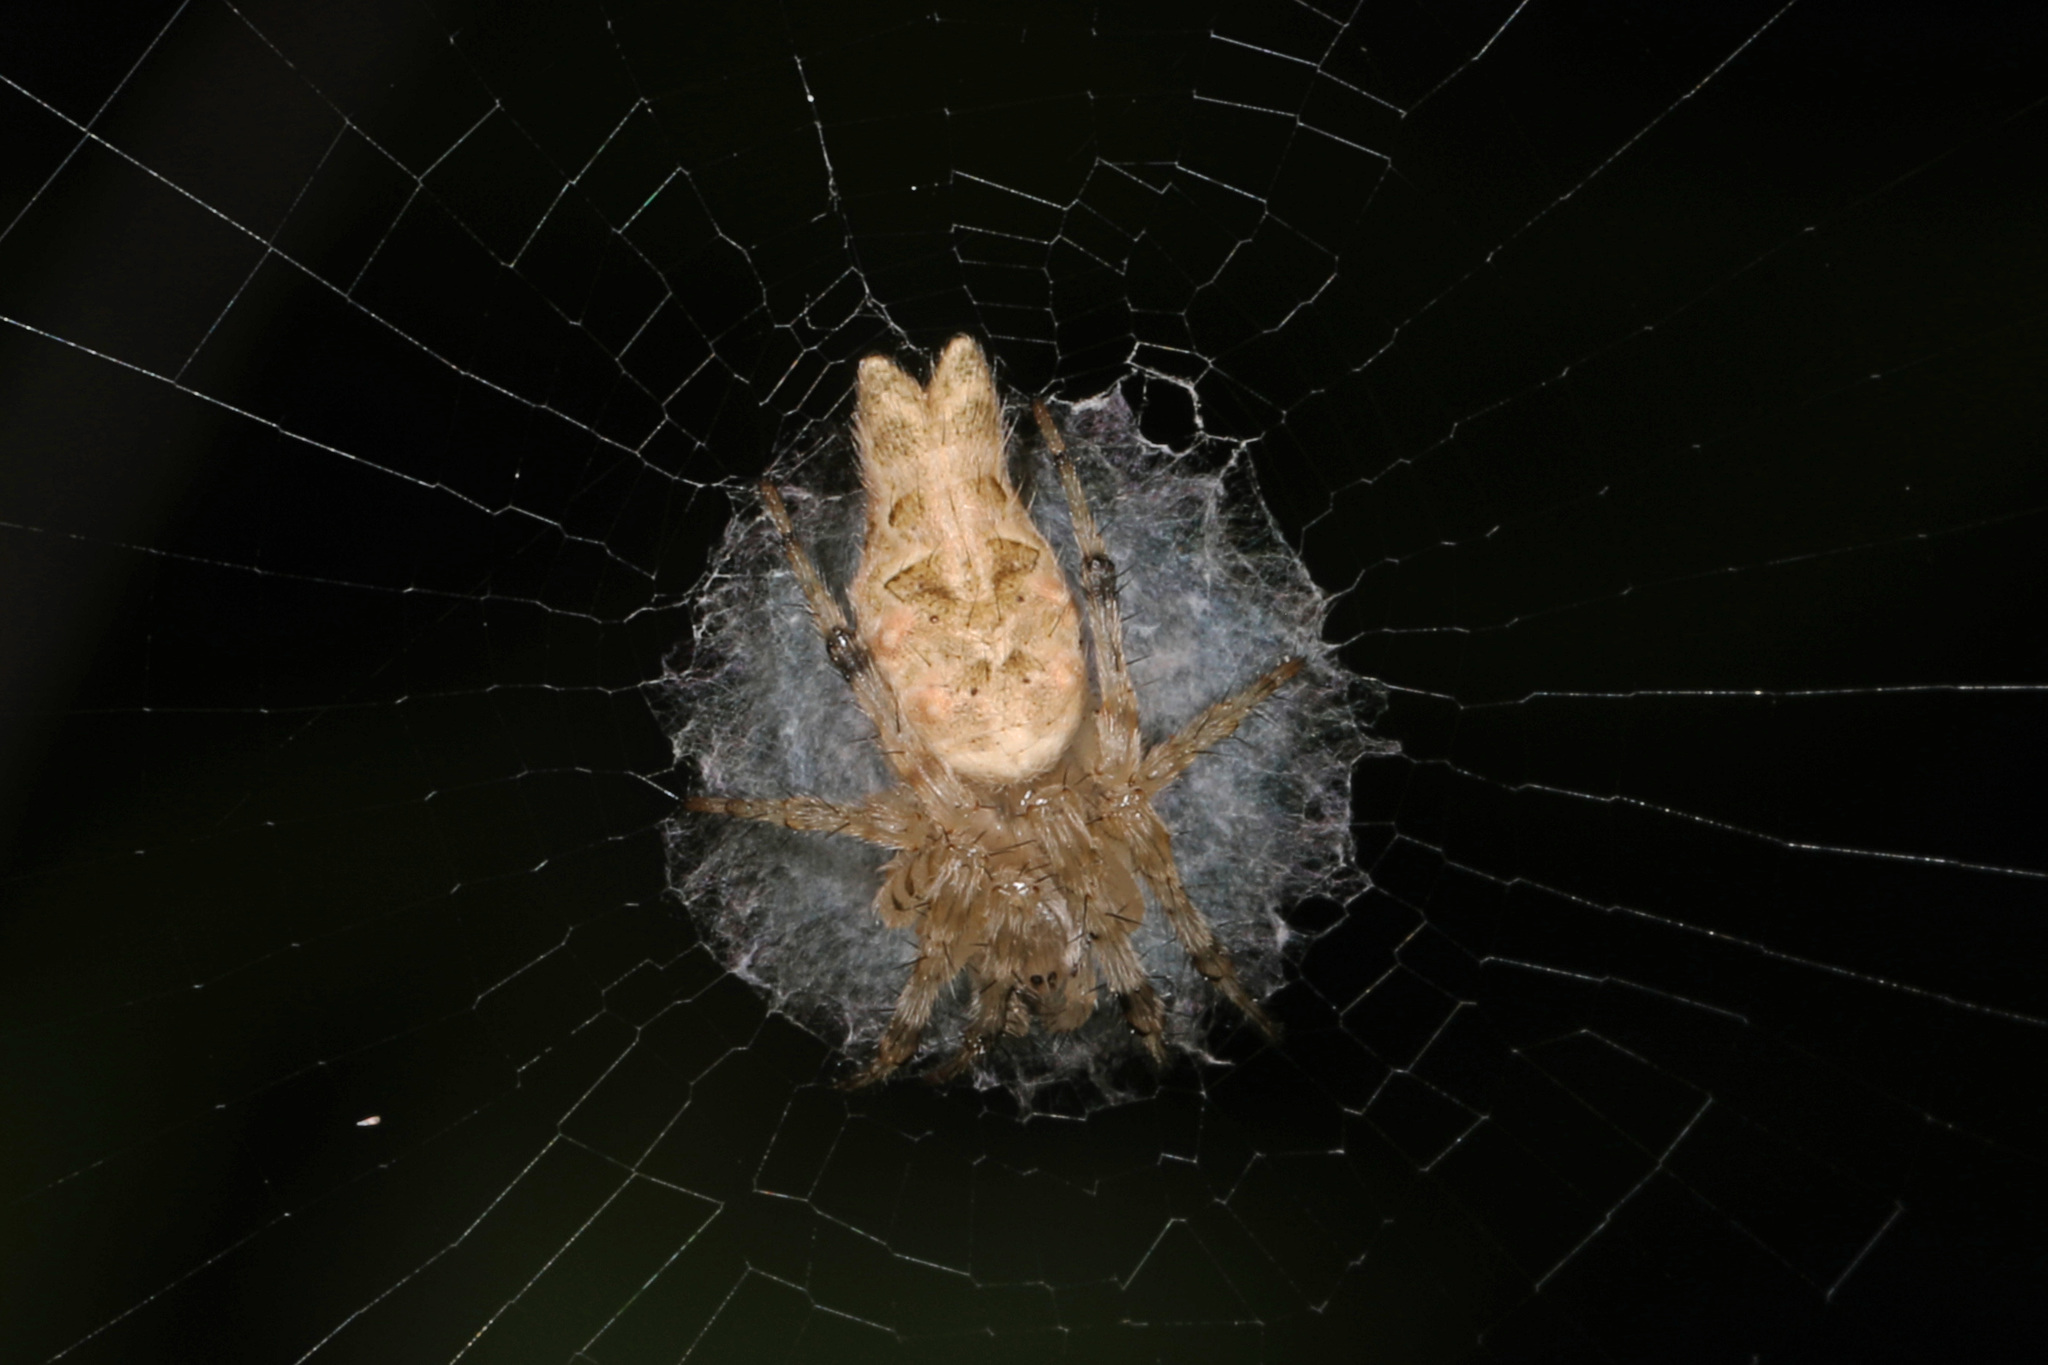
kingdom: Animalia
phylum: Arthropoda
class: Arachnida
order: Araneae
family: Araneidae
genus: Allocyclosa
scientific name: Allocyclosa bifurca
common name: Orb weavers
